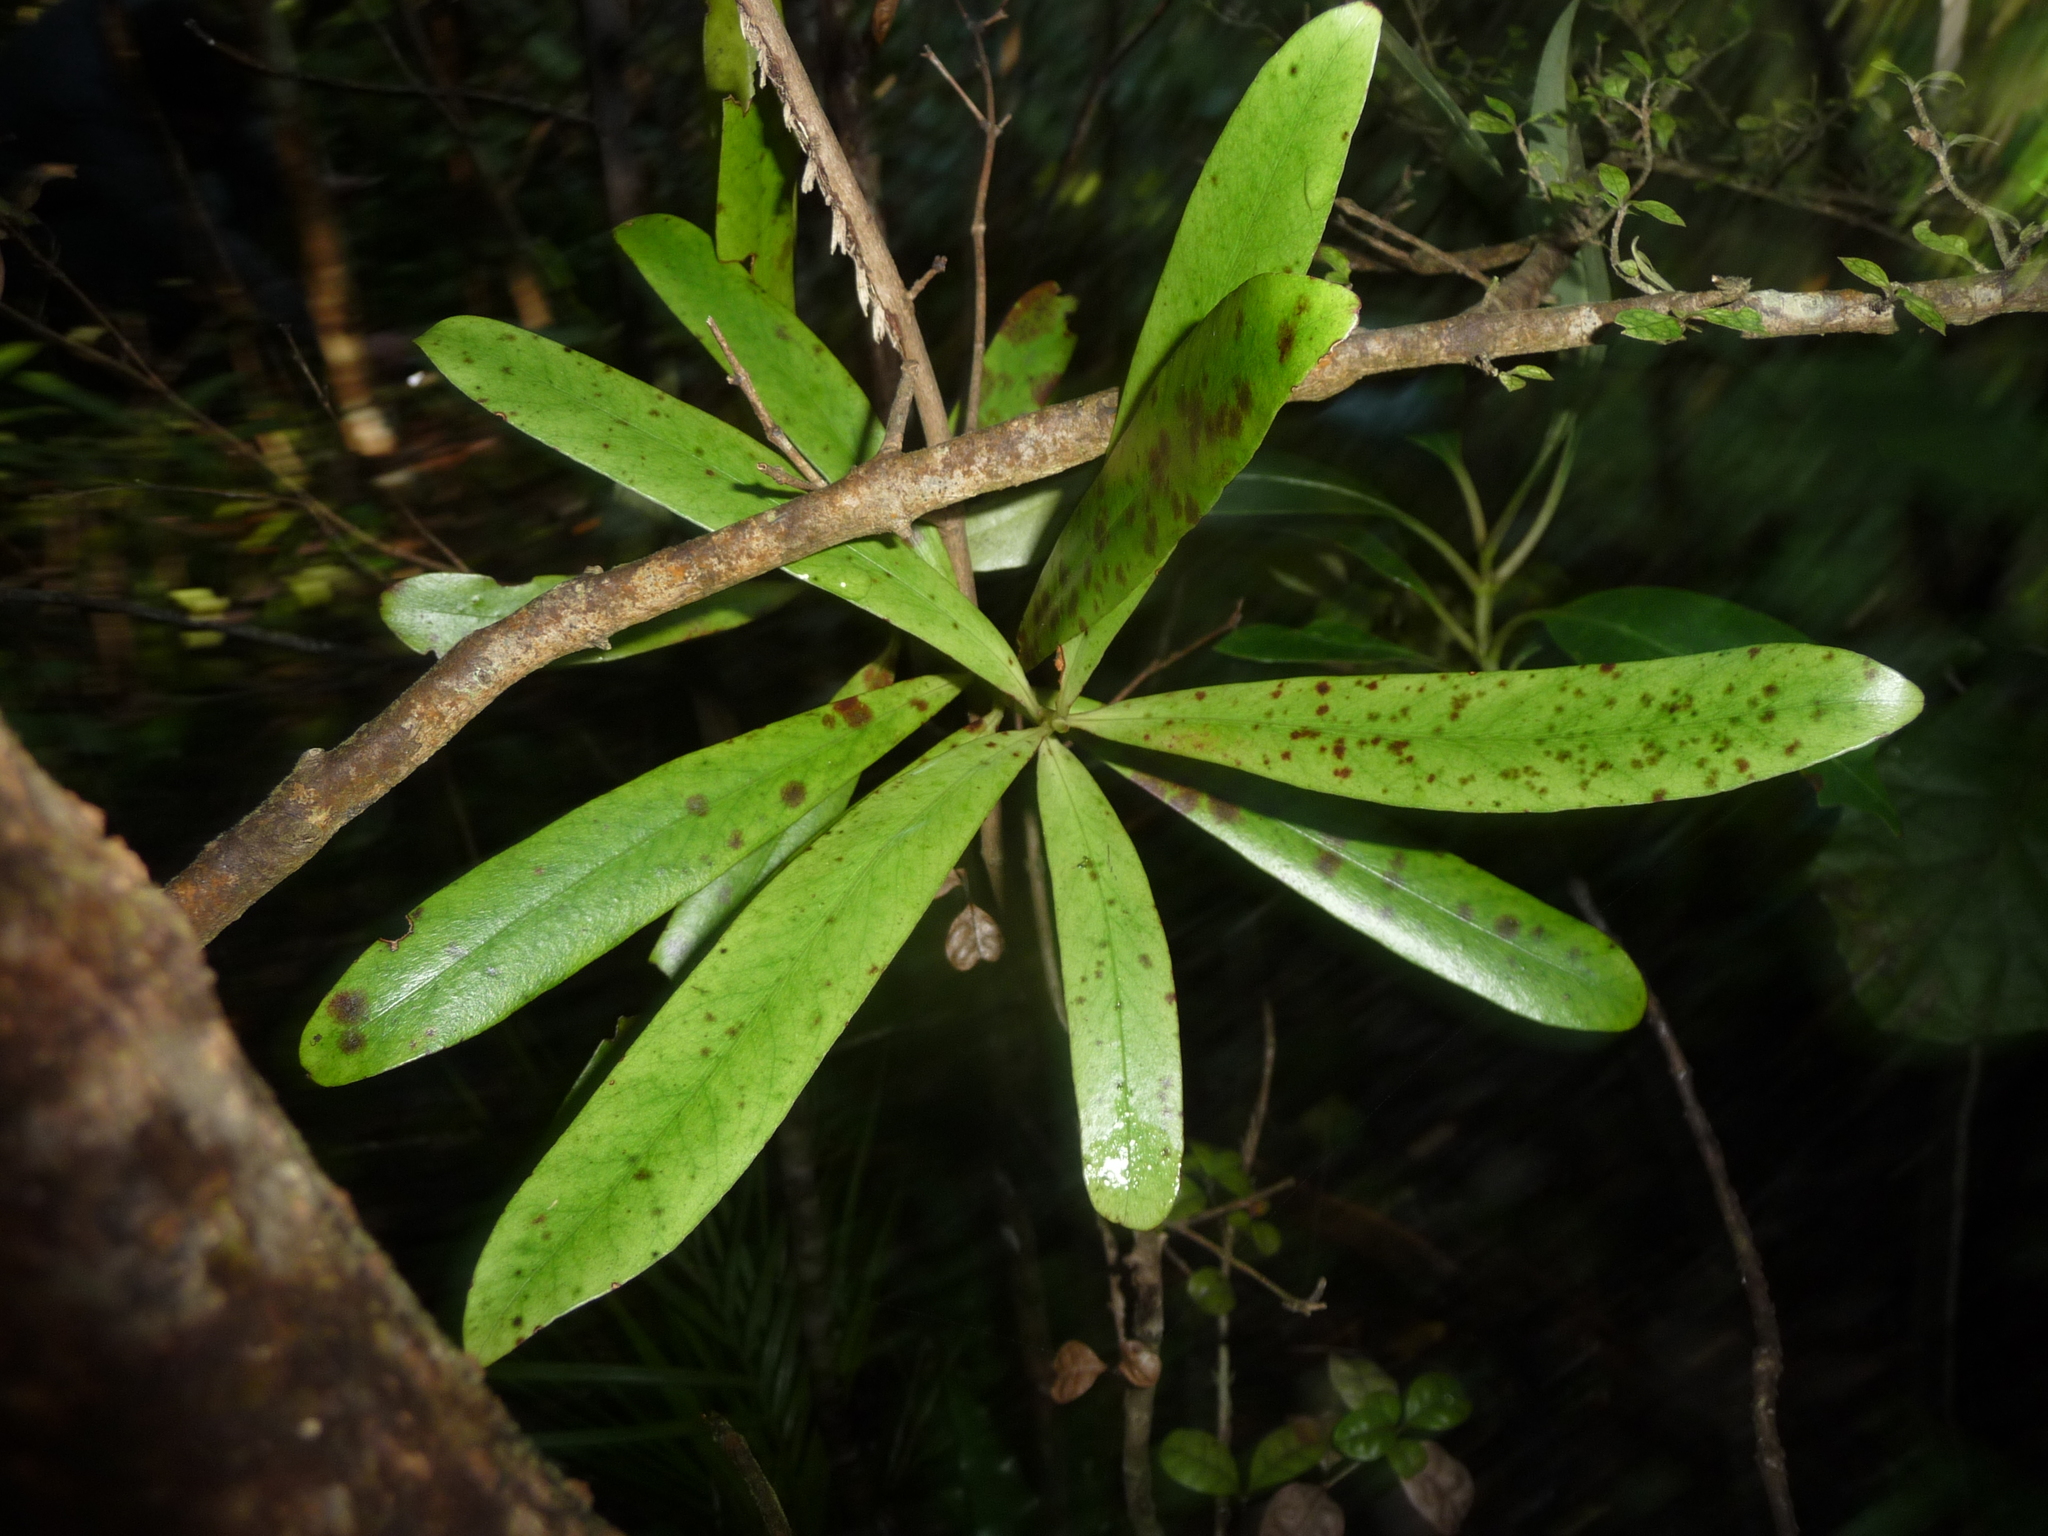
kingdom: Plantae
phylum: Tracheophyta
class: Magnoliopsida
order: Ericales
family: Primulaceae
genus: Myrsine
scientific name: Myrsine salicina
